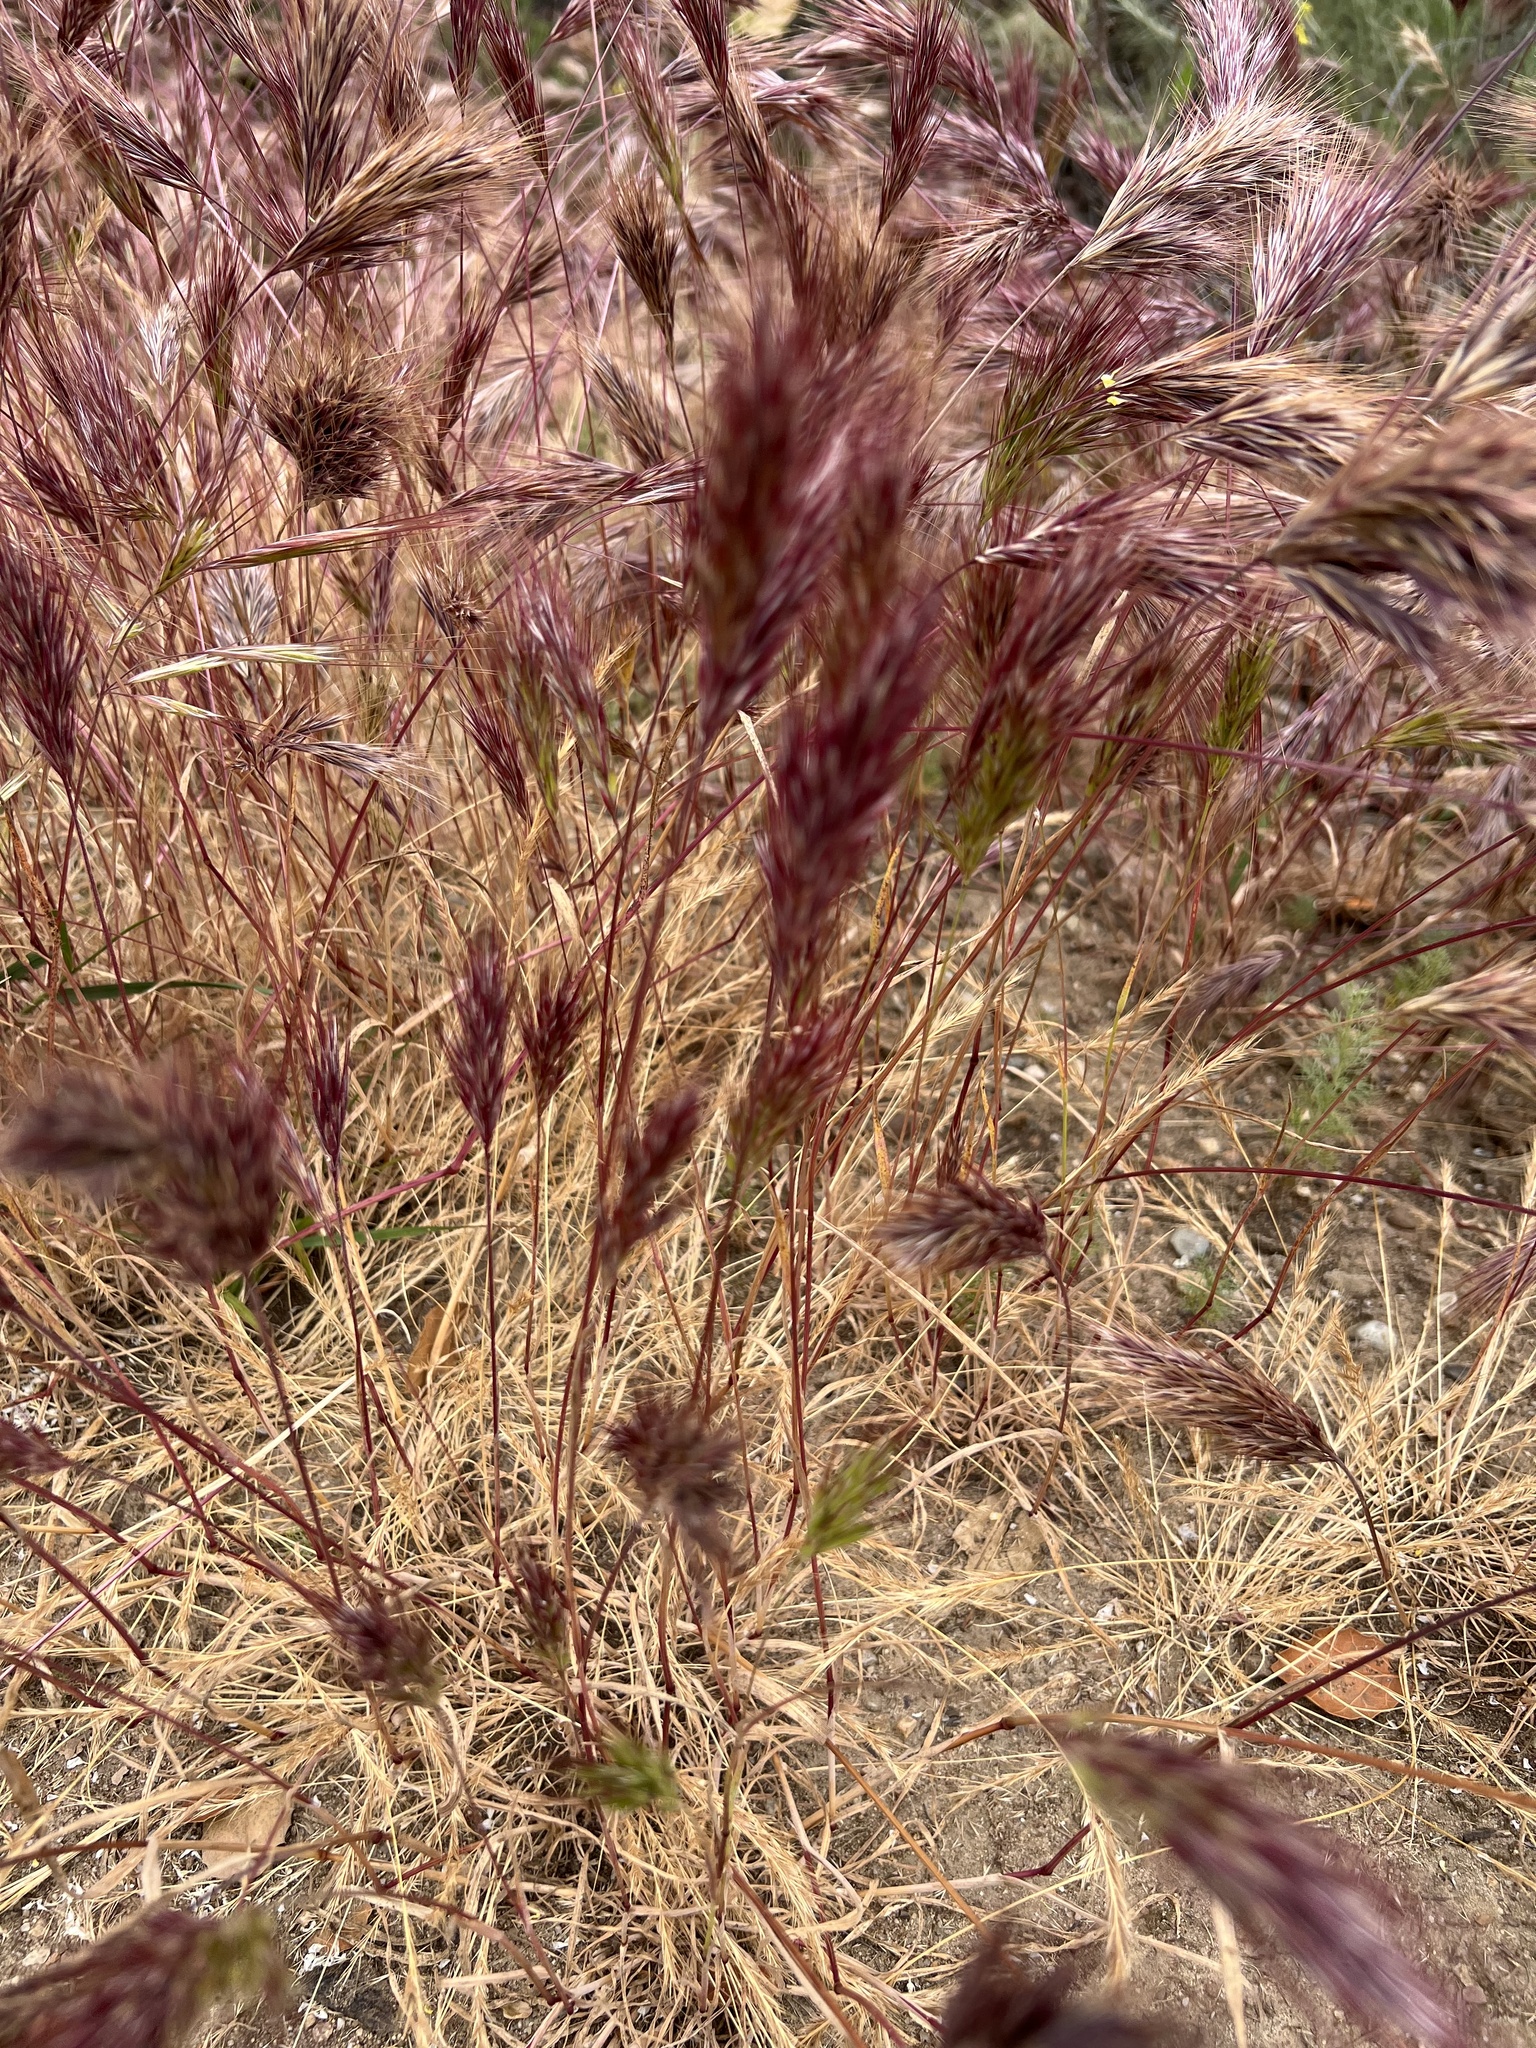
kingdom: Plantae
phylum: Tracheophyta
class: Liliopsida
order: Poales
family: Poaceae
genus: Bromus
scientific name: Bromus rubens
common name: Red brome
